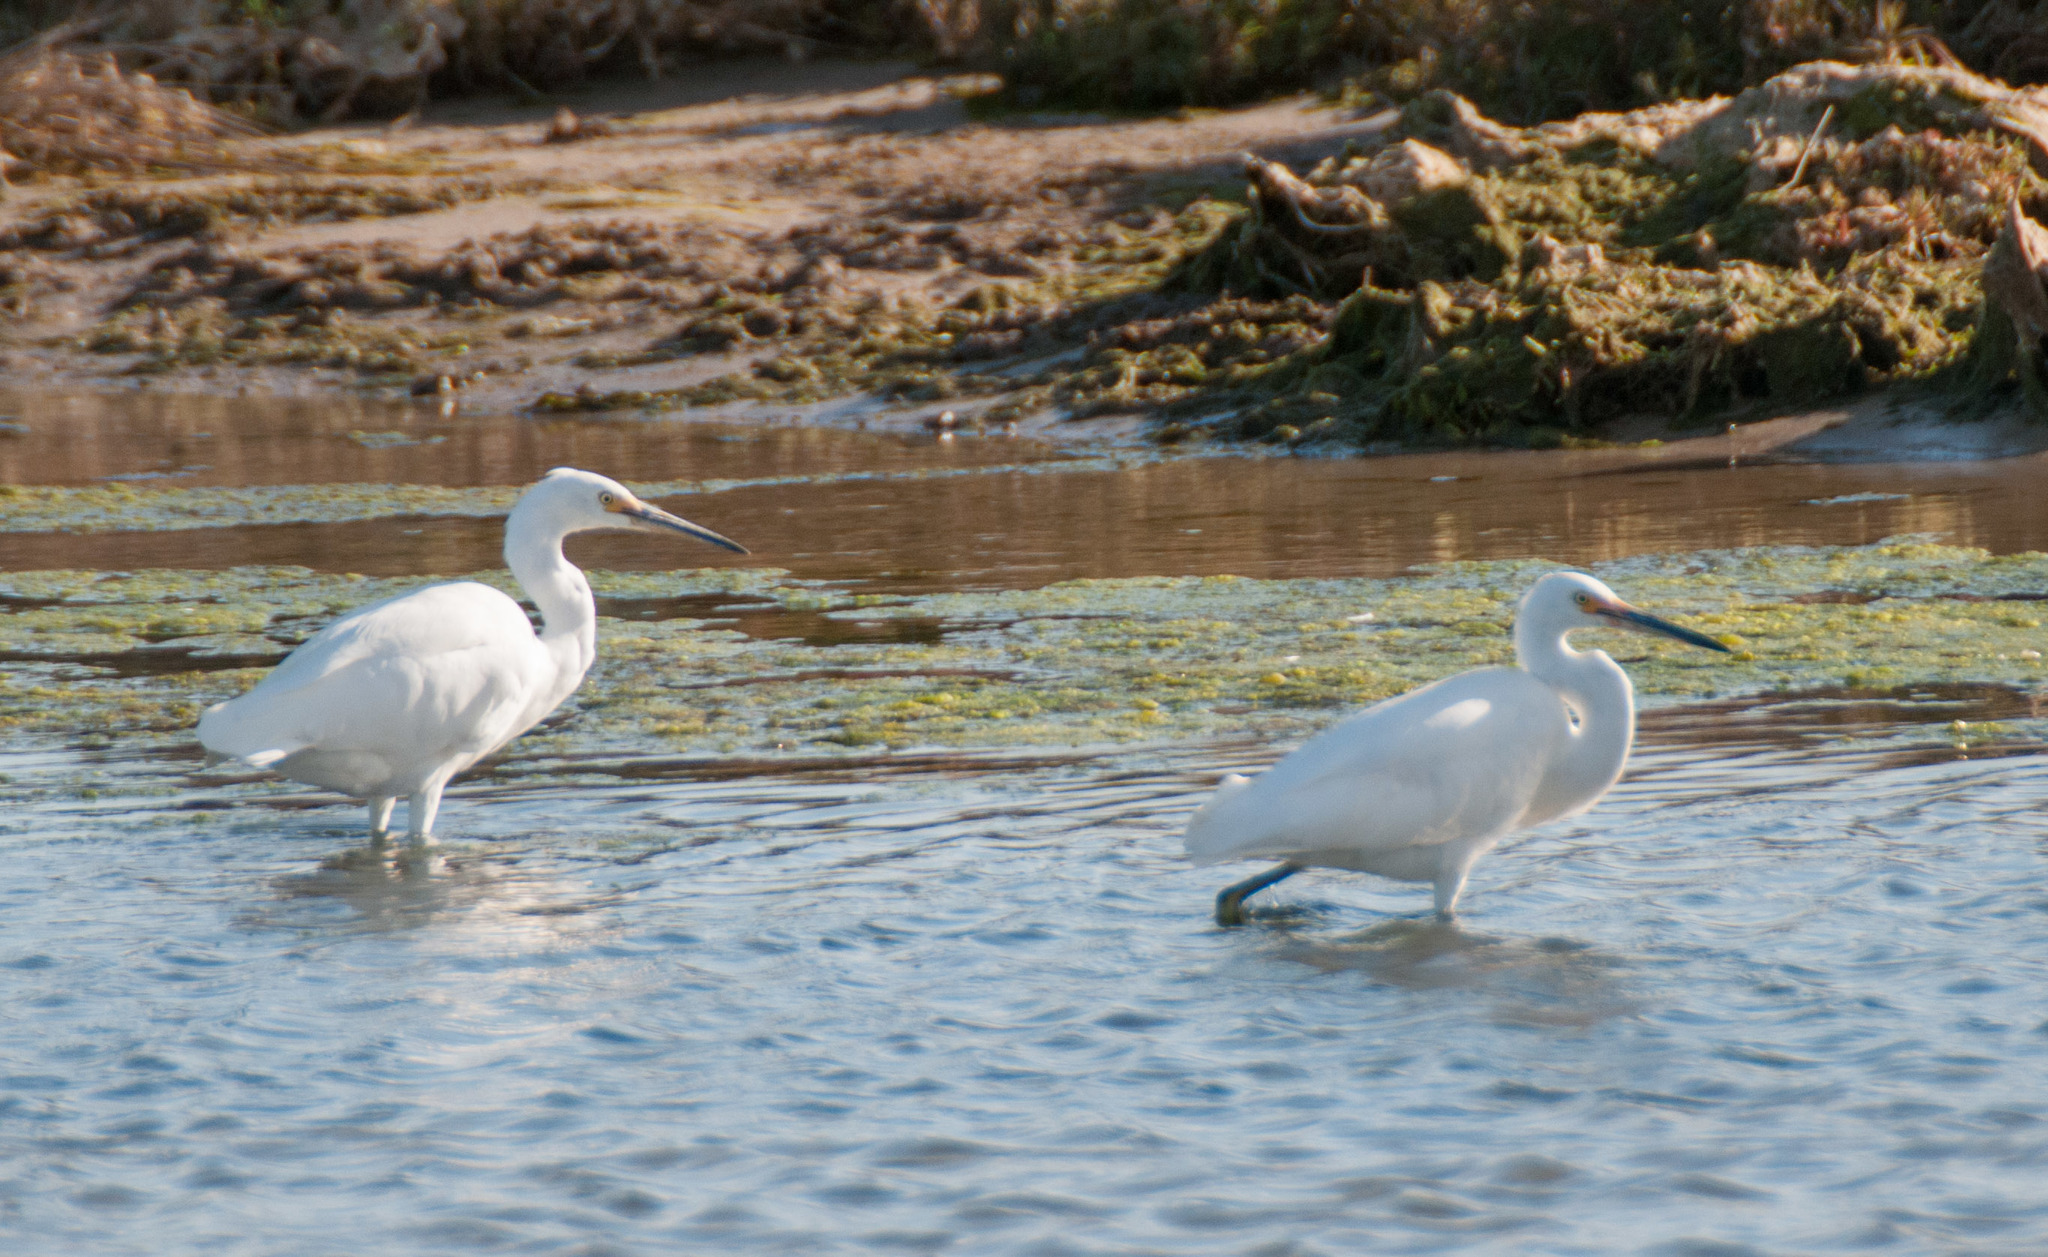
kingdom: Animalia
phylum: Chordata
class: Aves
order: Pelecaniformes
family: Ardeidae
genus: Egretta
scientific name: Egretta garzetta
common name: Little egret
